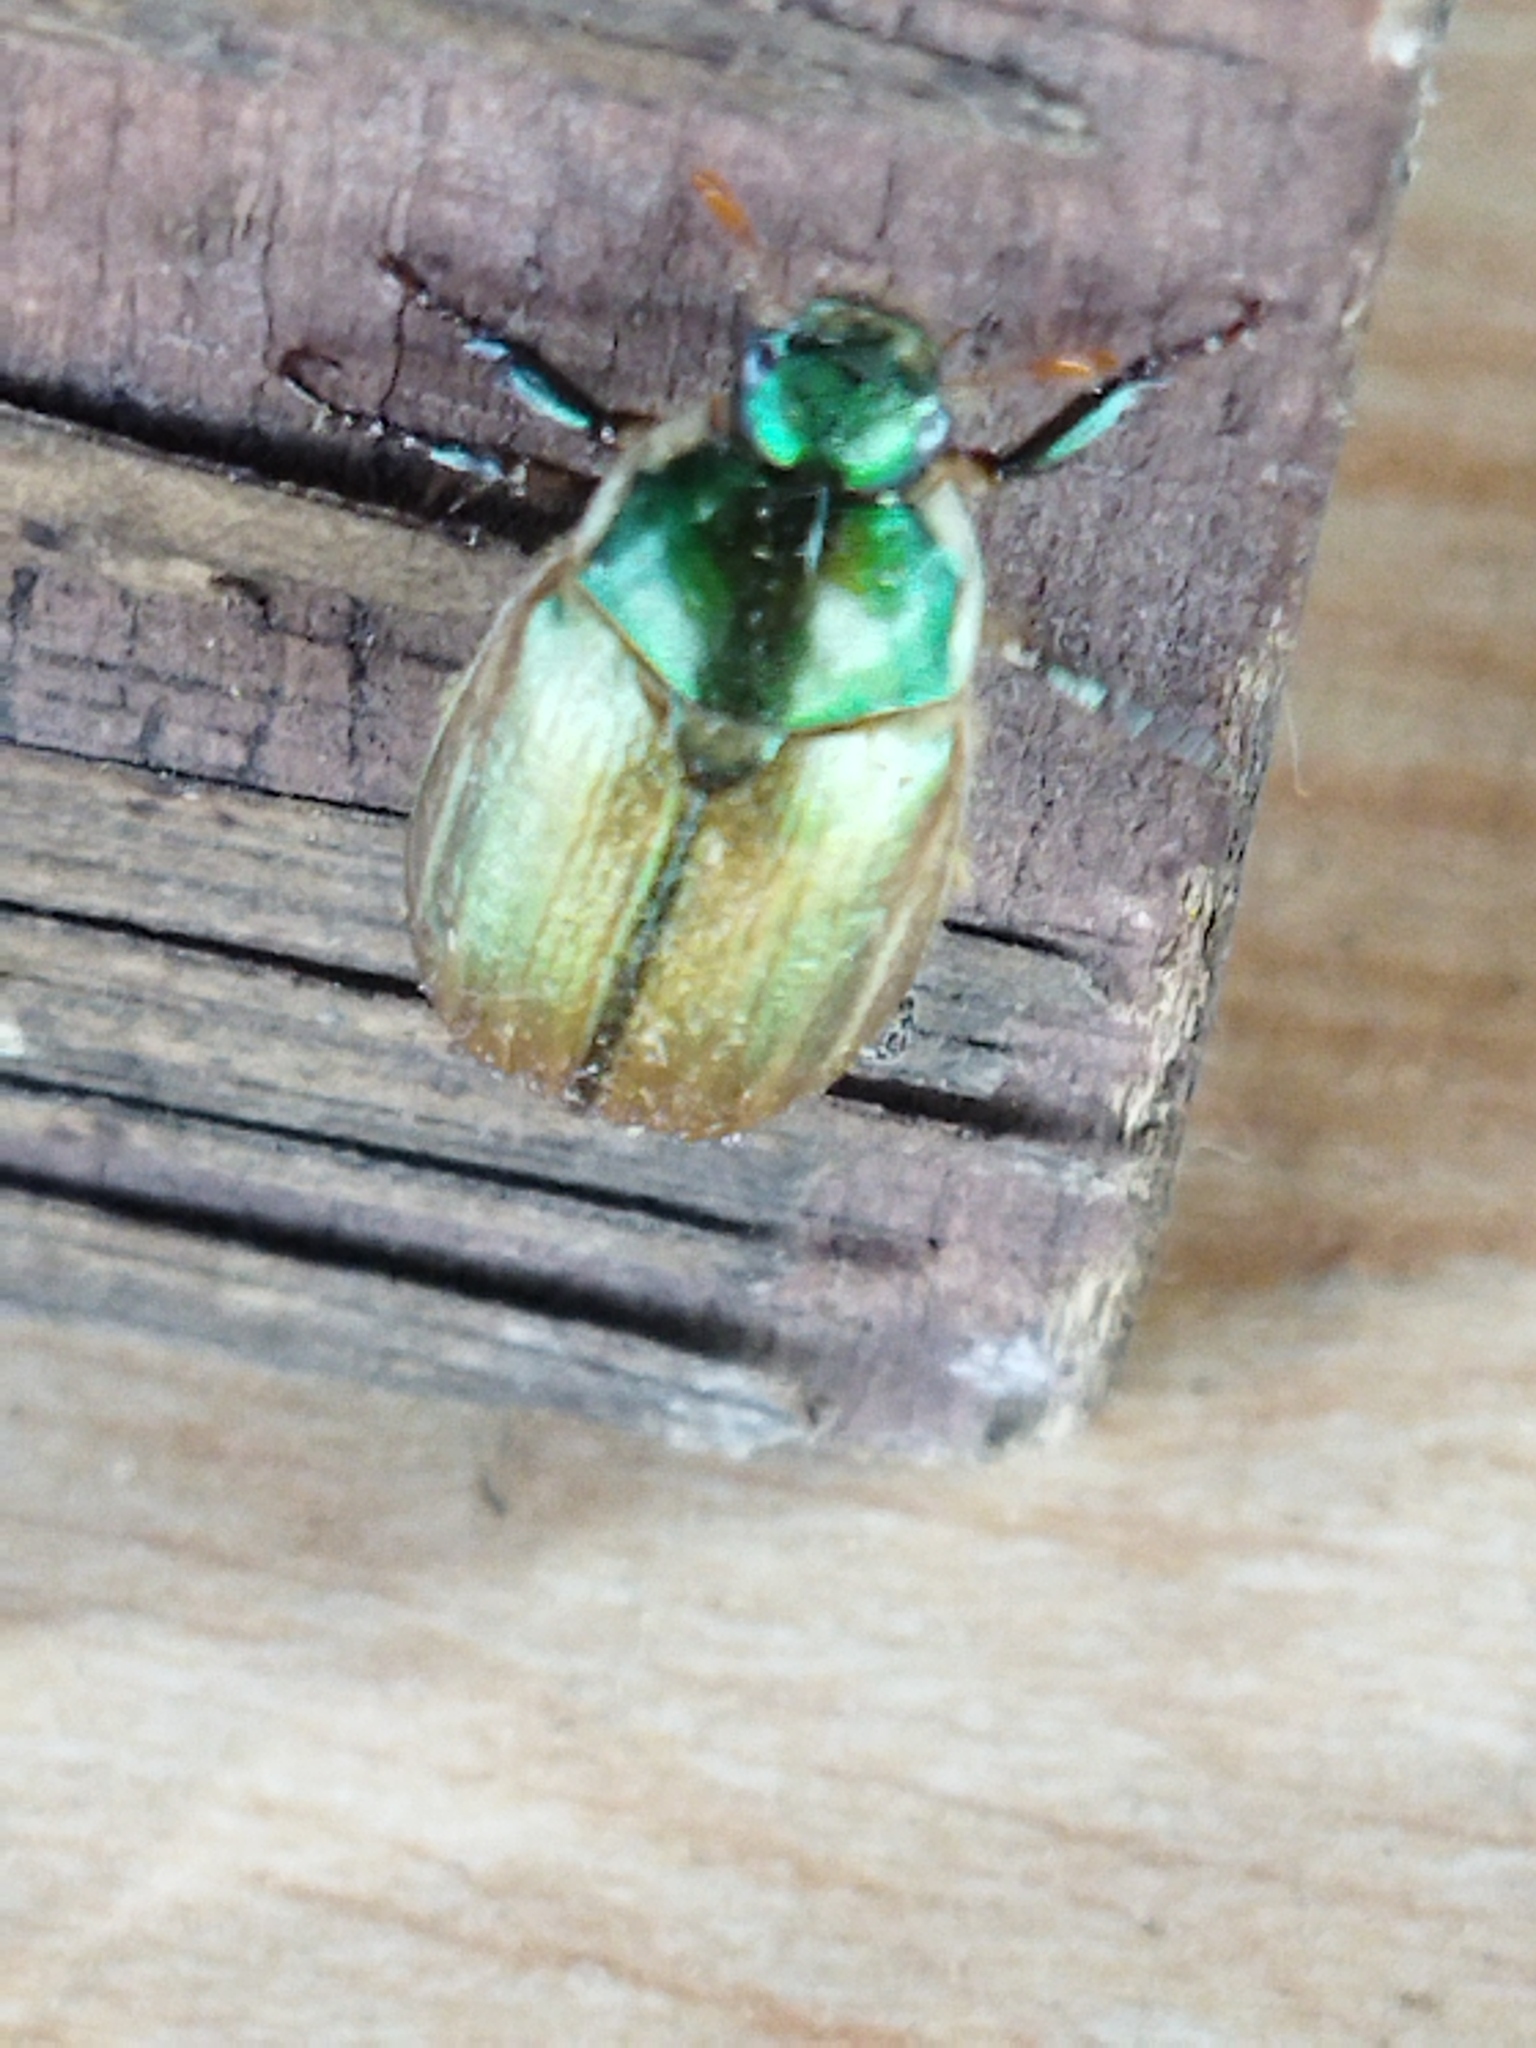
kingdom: Animalia
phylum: Arthropoda
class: Insecta
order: Coleoptera
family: Scarabaeidae
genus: Anomala
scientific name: Anomala vitis
